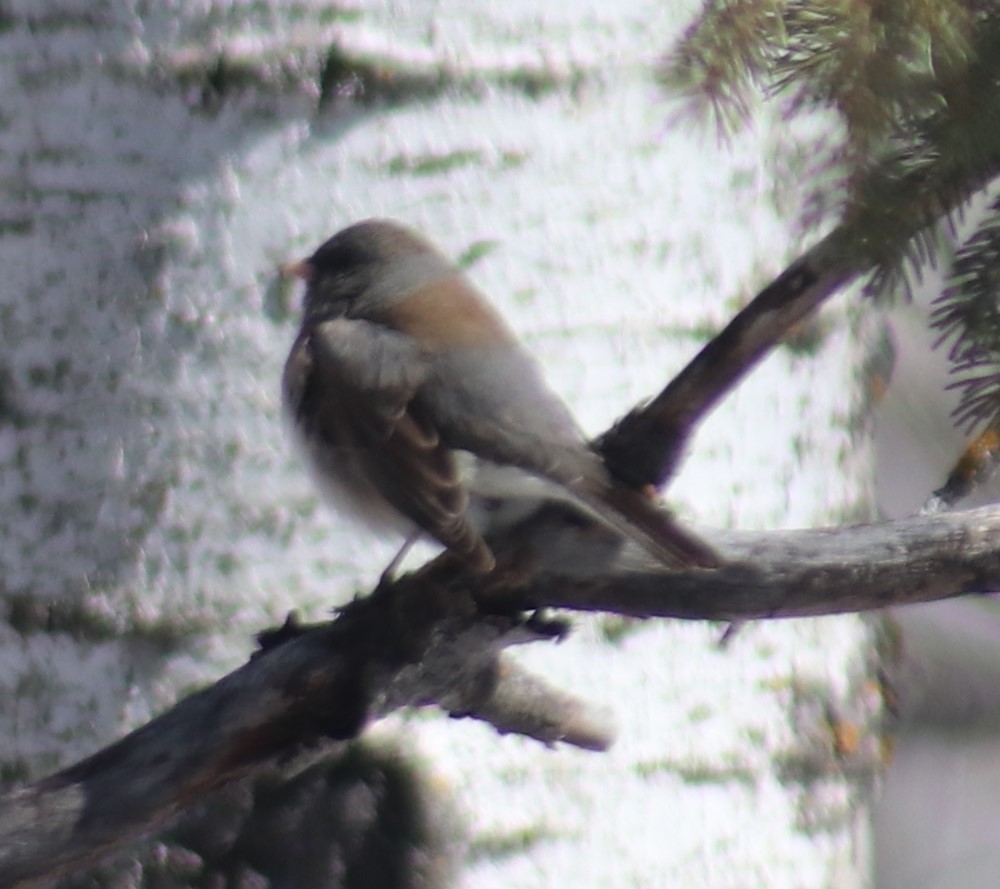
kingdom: Animalia
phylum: Chordata
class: Aves
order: Passeriformes
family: Passerellidae
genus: Junco
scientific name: Junco hyemalis
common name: Dark-eyed junco
